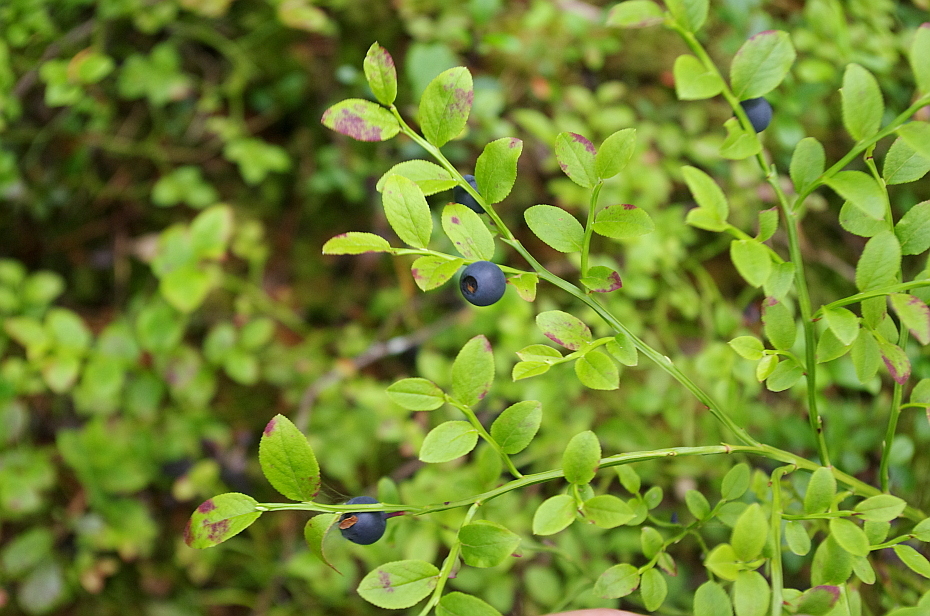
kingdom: Plantae
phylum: Tracheophyta
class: Magnoliopsida
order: Ericales
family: Ericaceae
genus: Vaccinium
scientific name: Vaccinium myrtillus
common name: Bilberry
